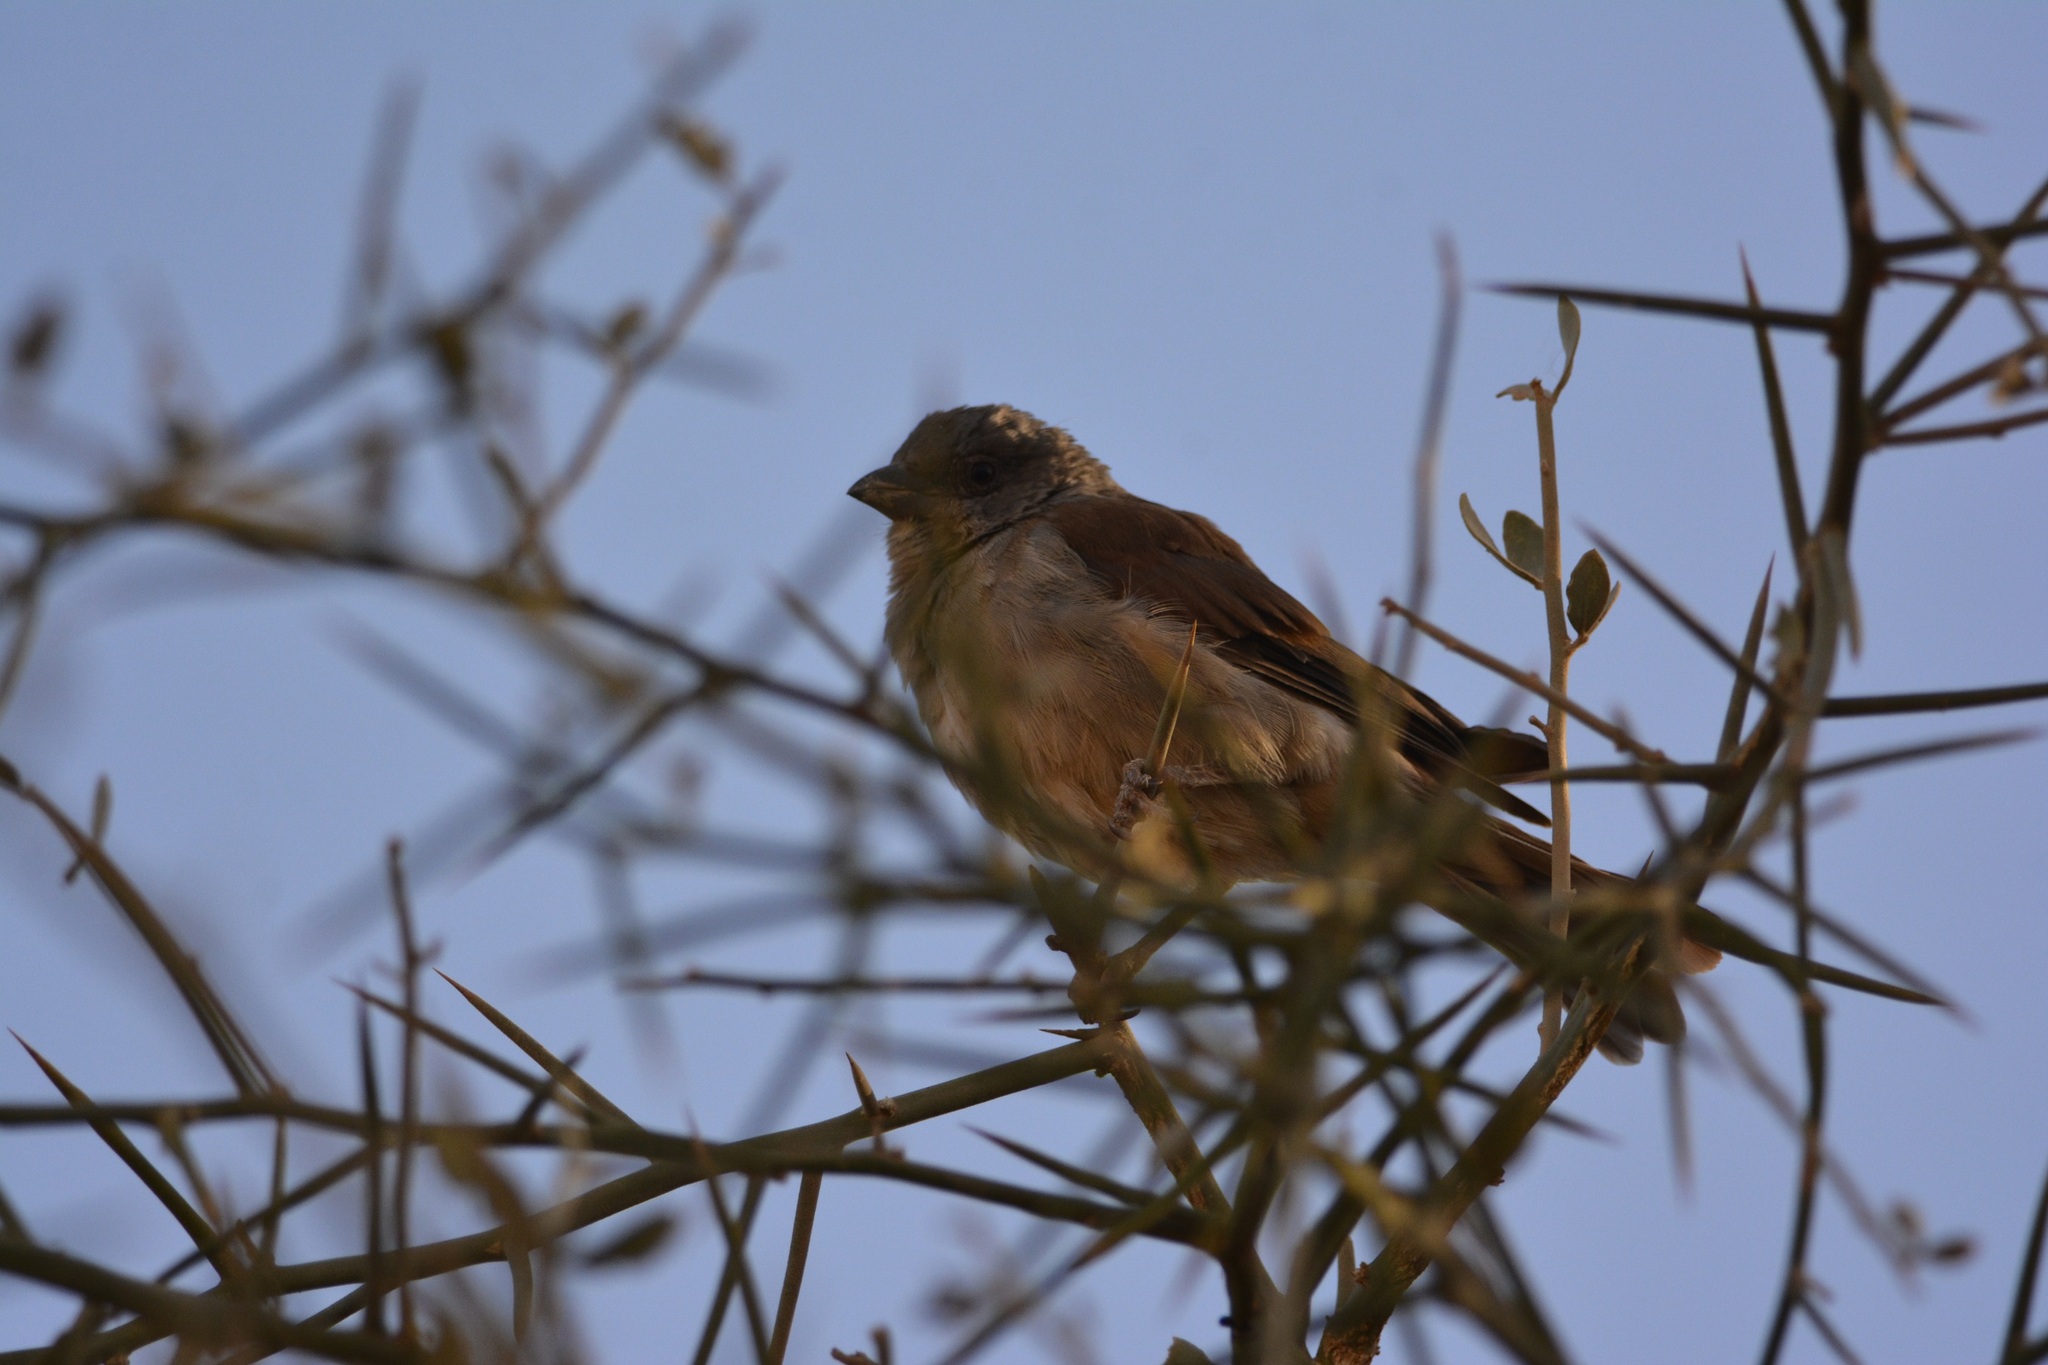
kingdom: Animalia
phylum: Chordata
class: Aves
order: Passeriformes
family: Passeridae
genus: Passer
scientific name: Passer griseus
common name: Northern grey-headed sparrow
